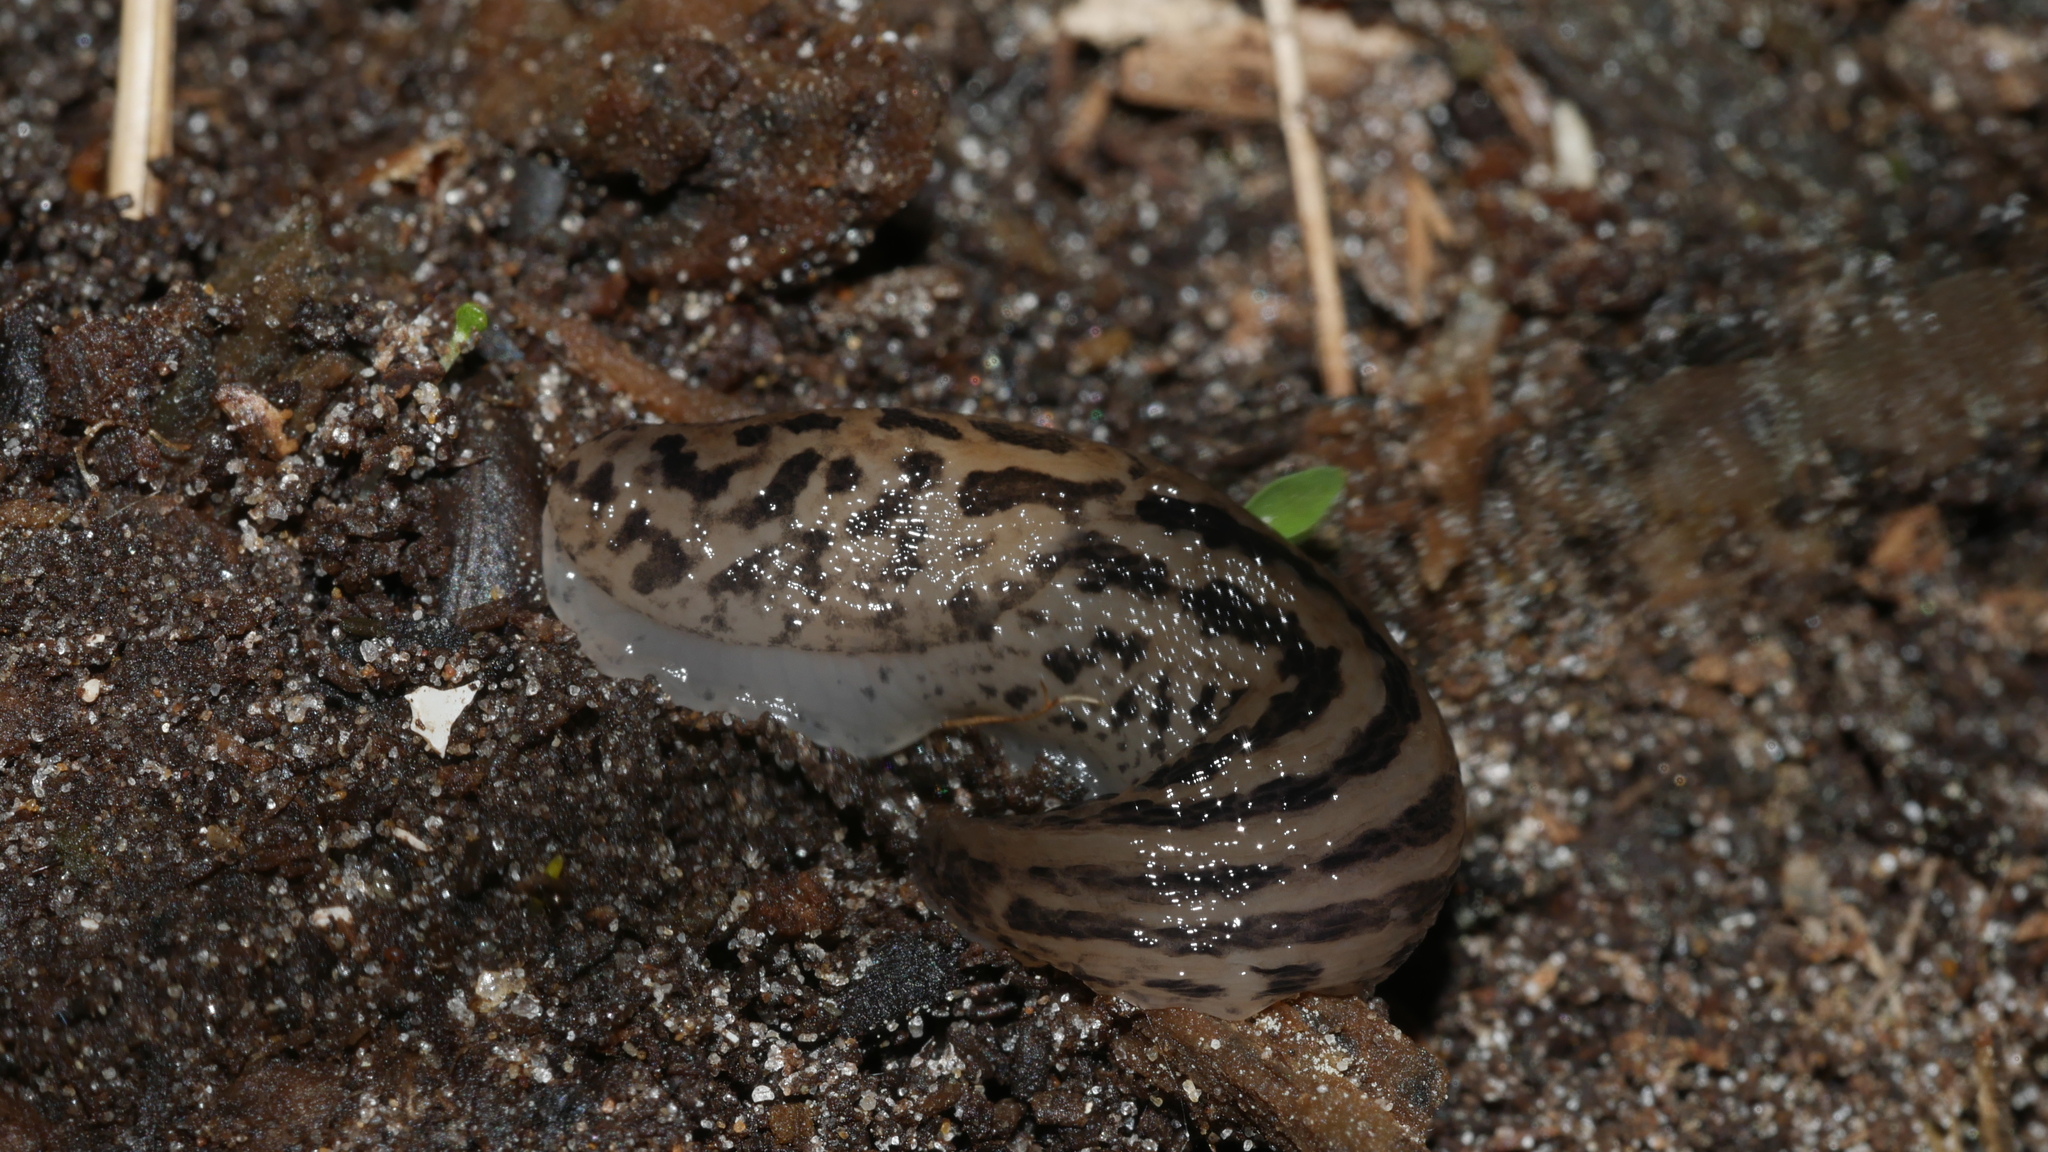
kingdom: Animalia
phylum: Mollusca
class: Gastropoda
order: Stylommatophora
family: Limacidae
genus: Limax
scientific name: Limax maximus
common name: Great grey slug
